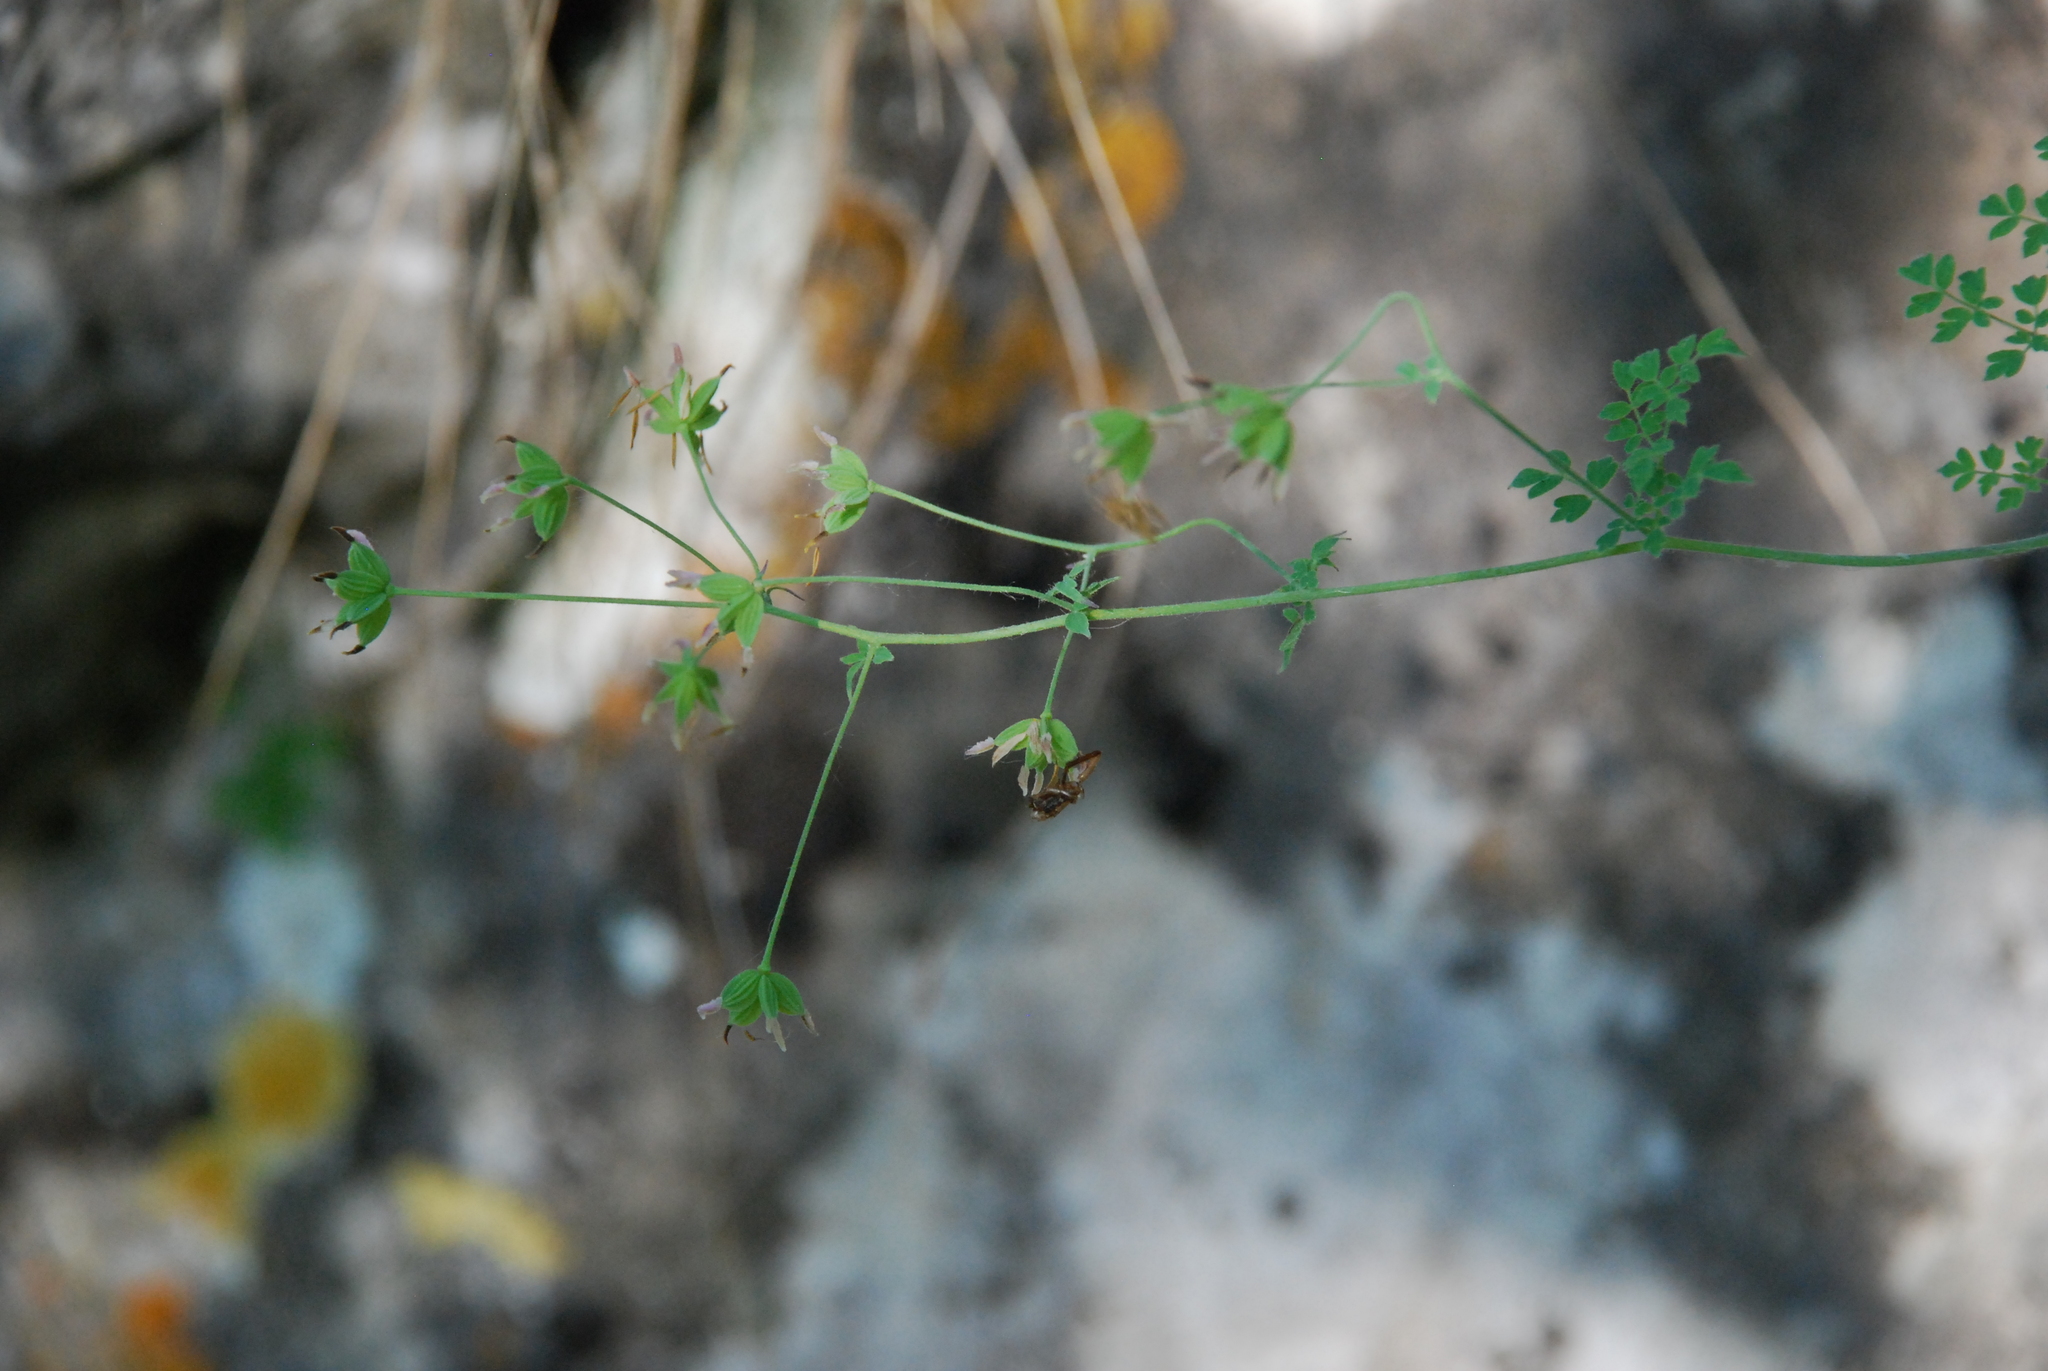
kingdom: Plantae
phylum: Tracheophyta
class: Magnoliopsida
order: Ranunculales
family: Ranunculaceae
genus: Thalictrum
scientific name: Thalictrum minus
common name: Lesser meadow-rue
